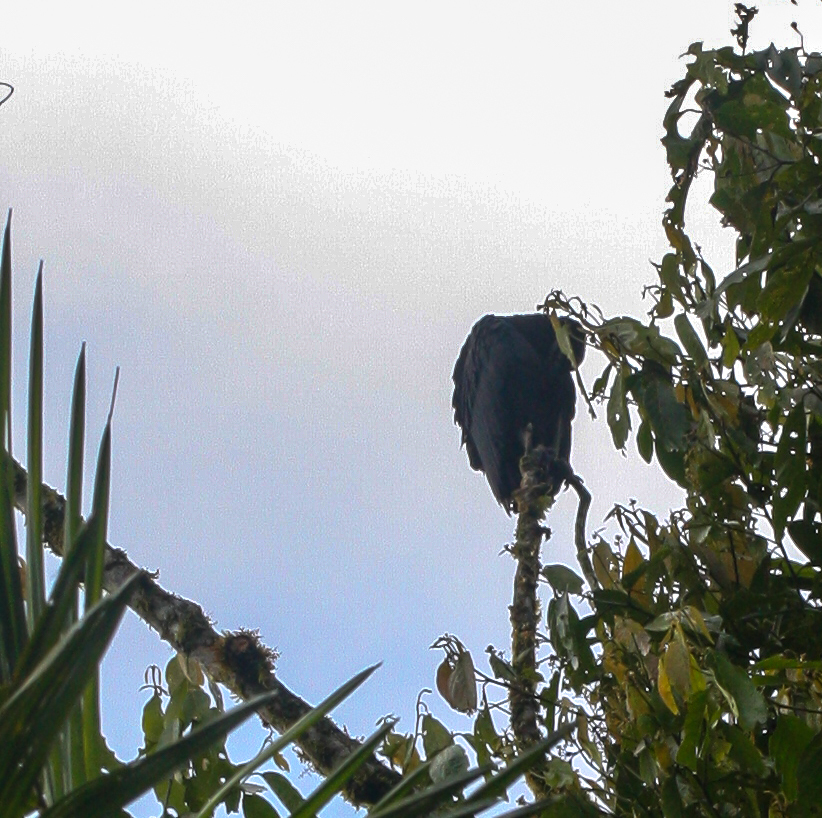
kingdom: Animalia
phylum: Chordata
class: Aves
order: Accipitriformes
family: Cathartidae
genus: Coragyps
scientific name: Coragyps atratus
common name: Black vulture
